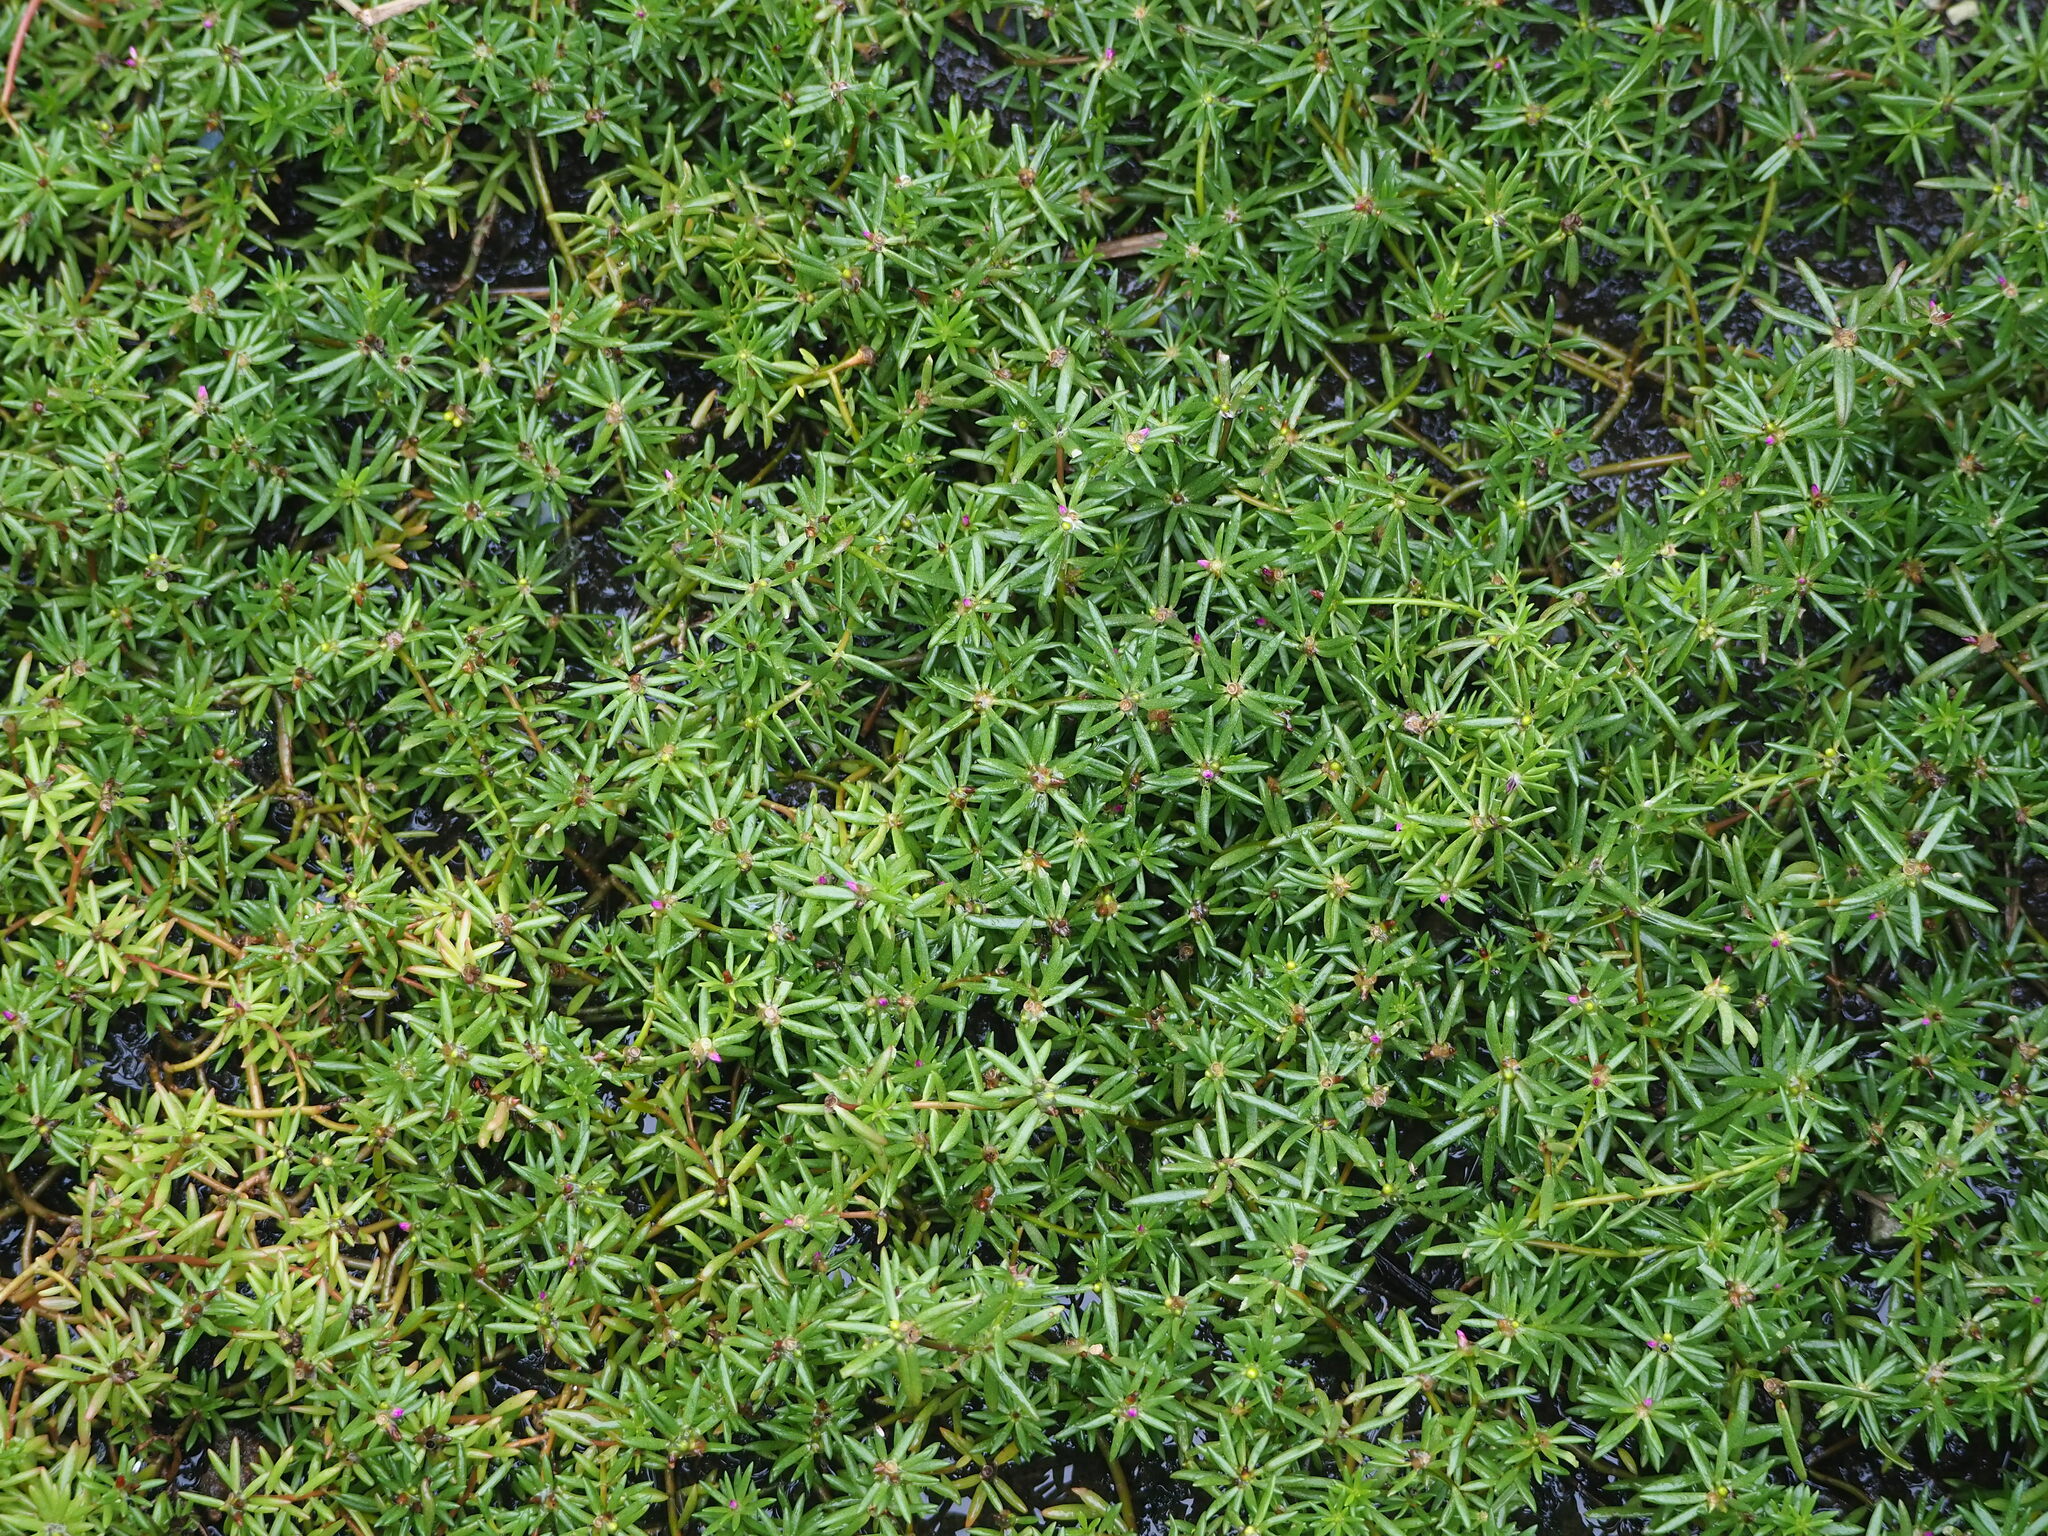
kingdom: Plantae
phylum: Tracheophyta
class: Magnoliopsida
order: Caryophyllales
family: Portulacaceae
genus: Portulaca
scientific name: Portulaca pilosa
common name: Kiss me quick
